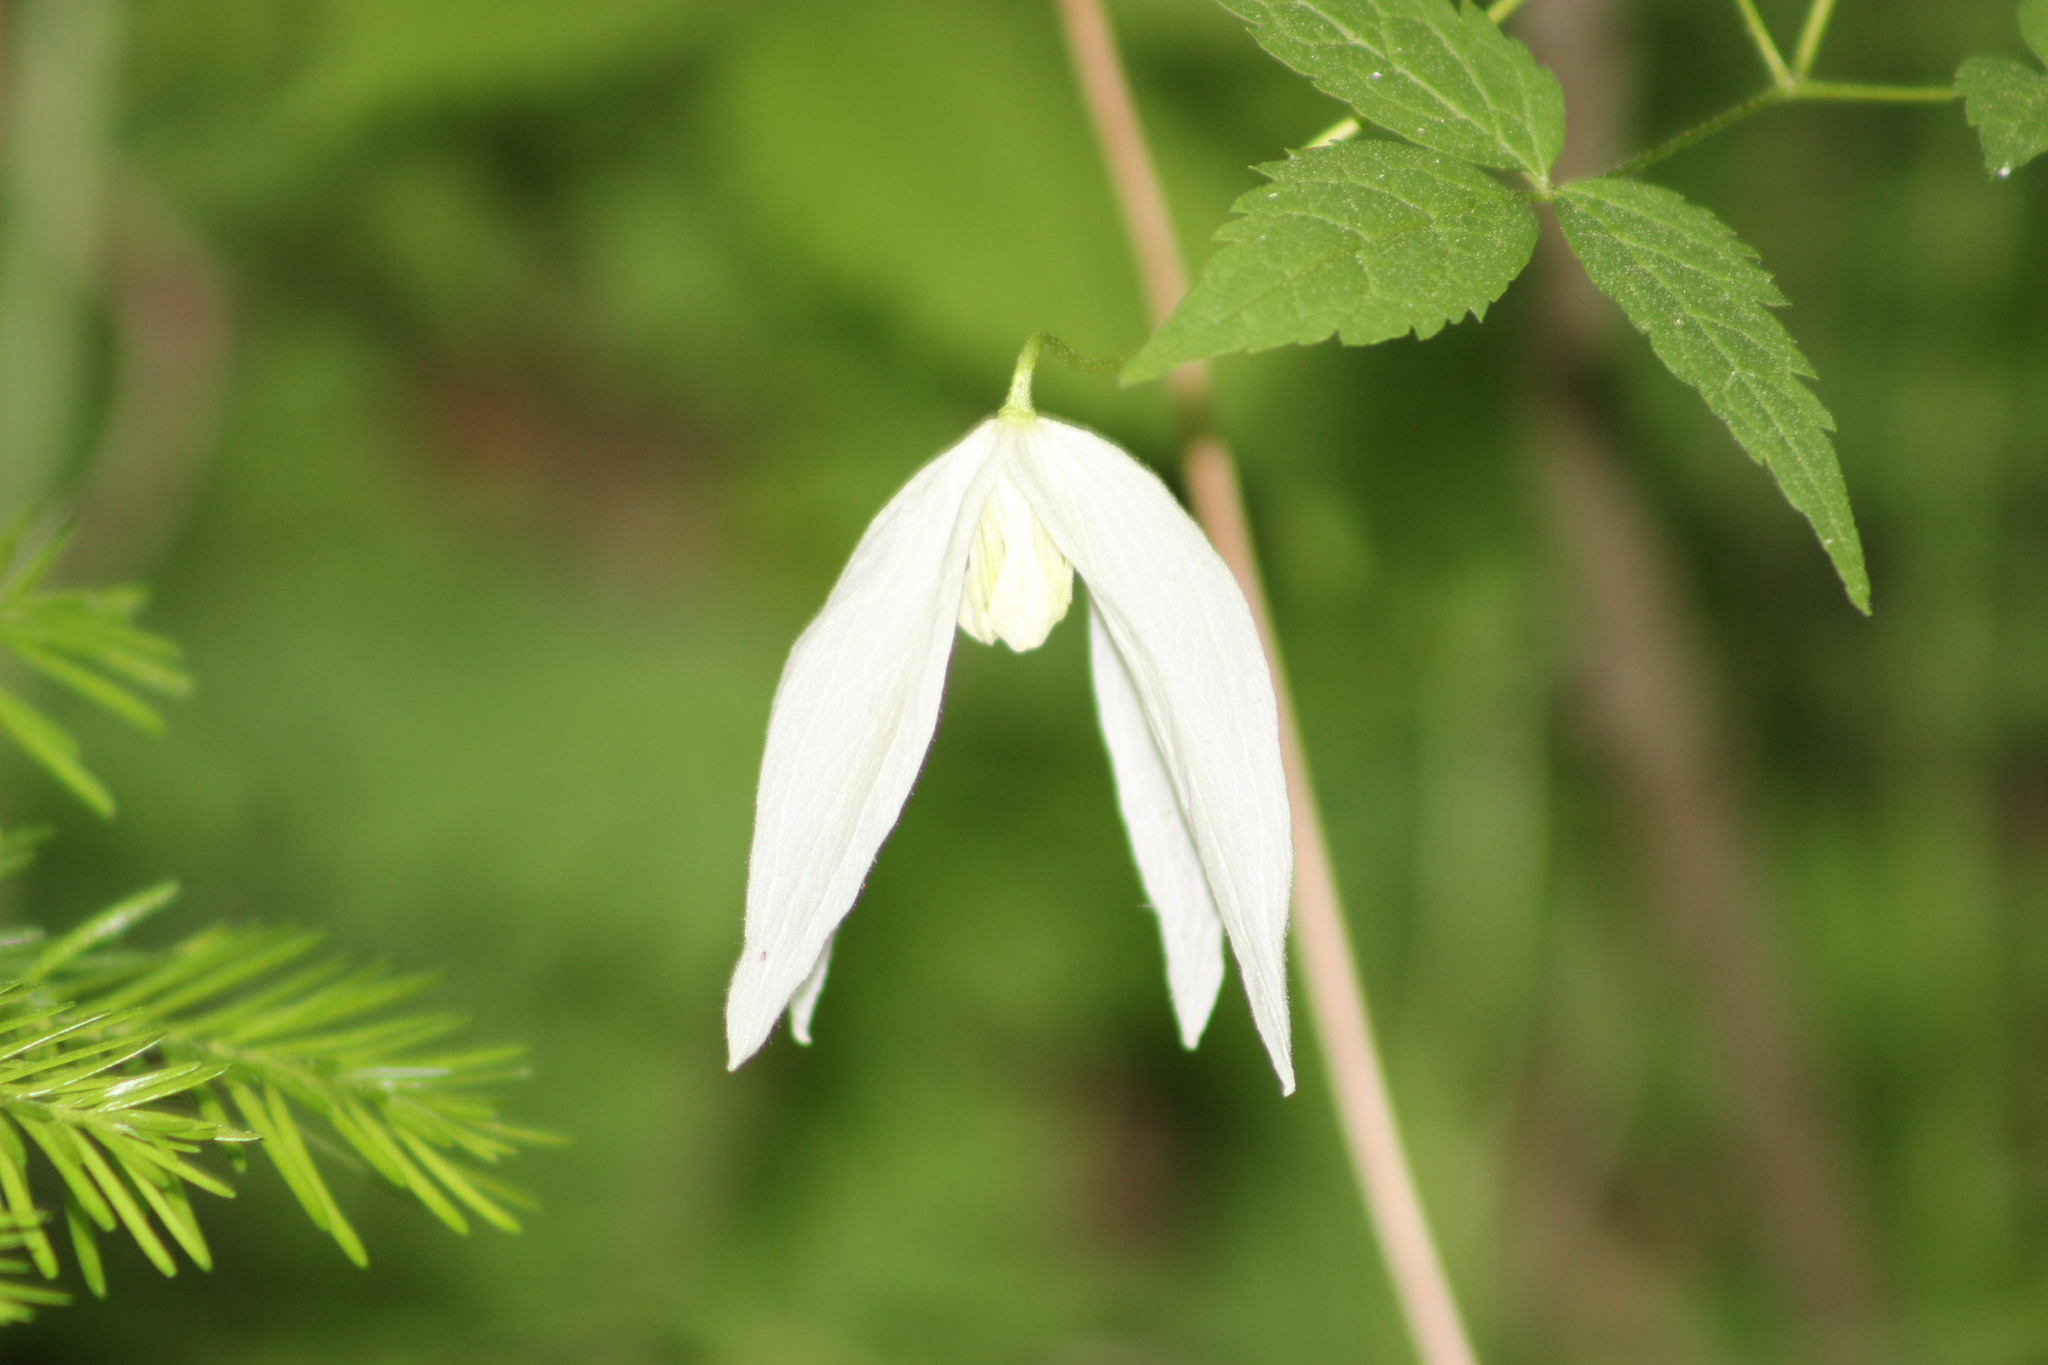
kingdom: Plantae
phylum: Tracheophyta
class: Magnoliopsida
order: Ranunculales
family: Ranunculaceae
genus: Clematis
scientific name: Clematis sibirica
